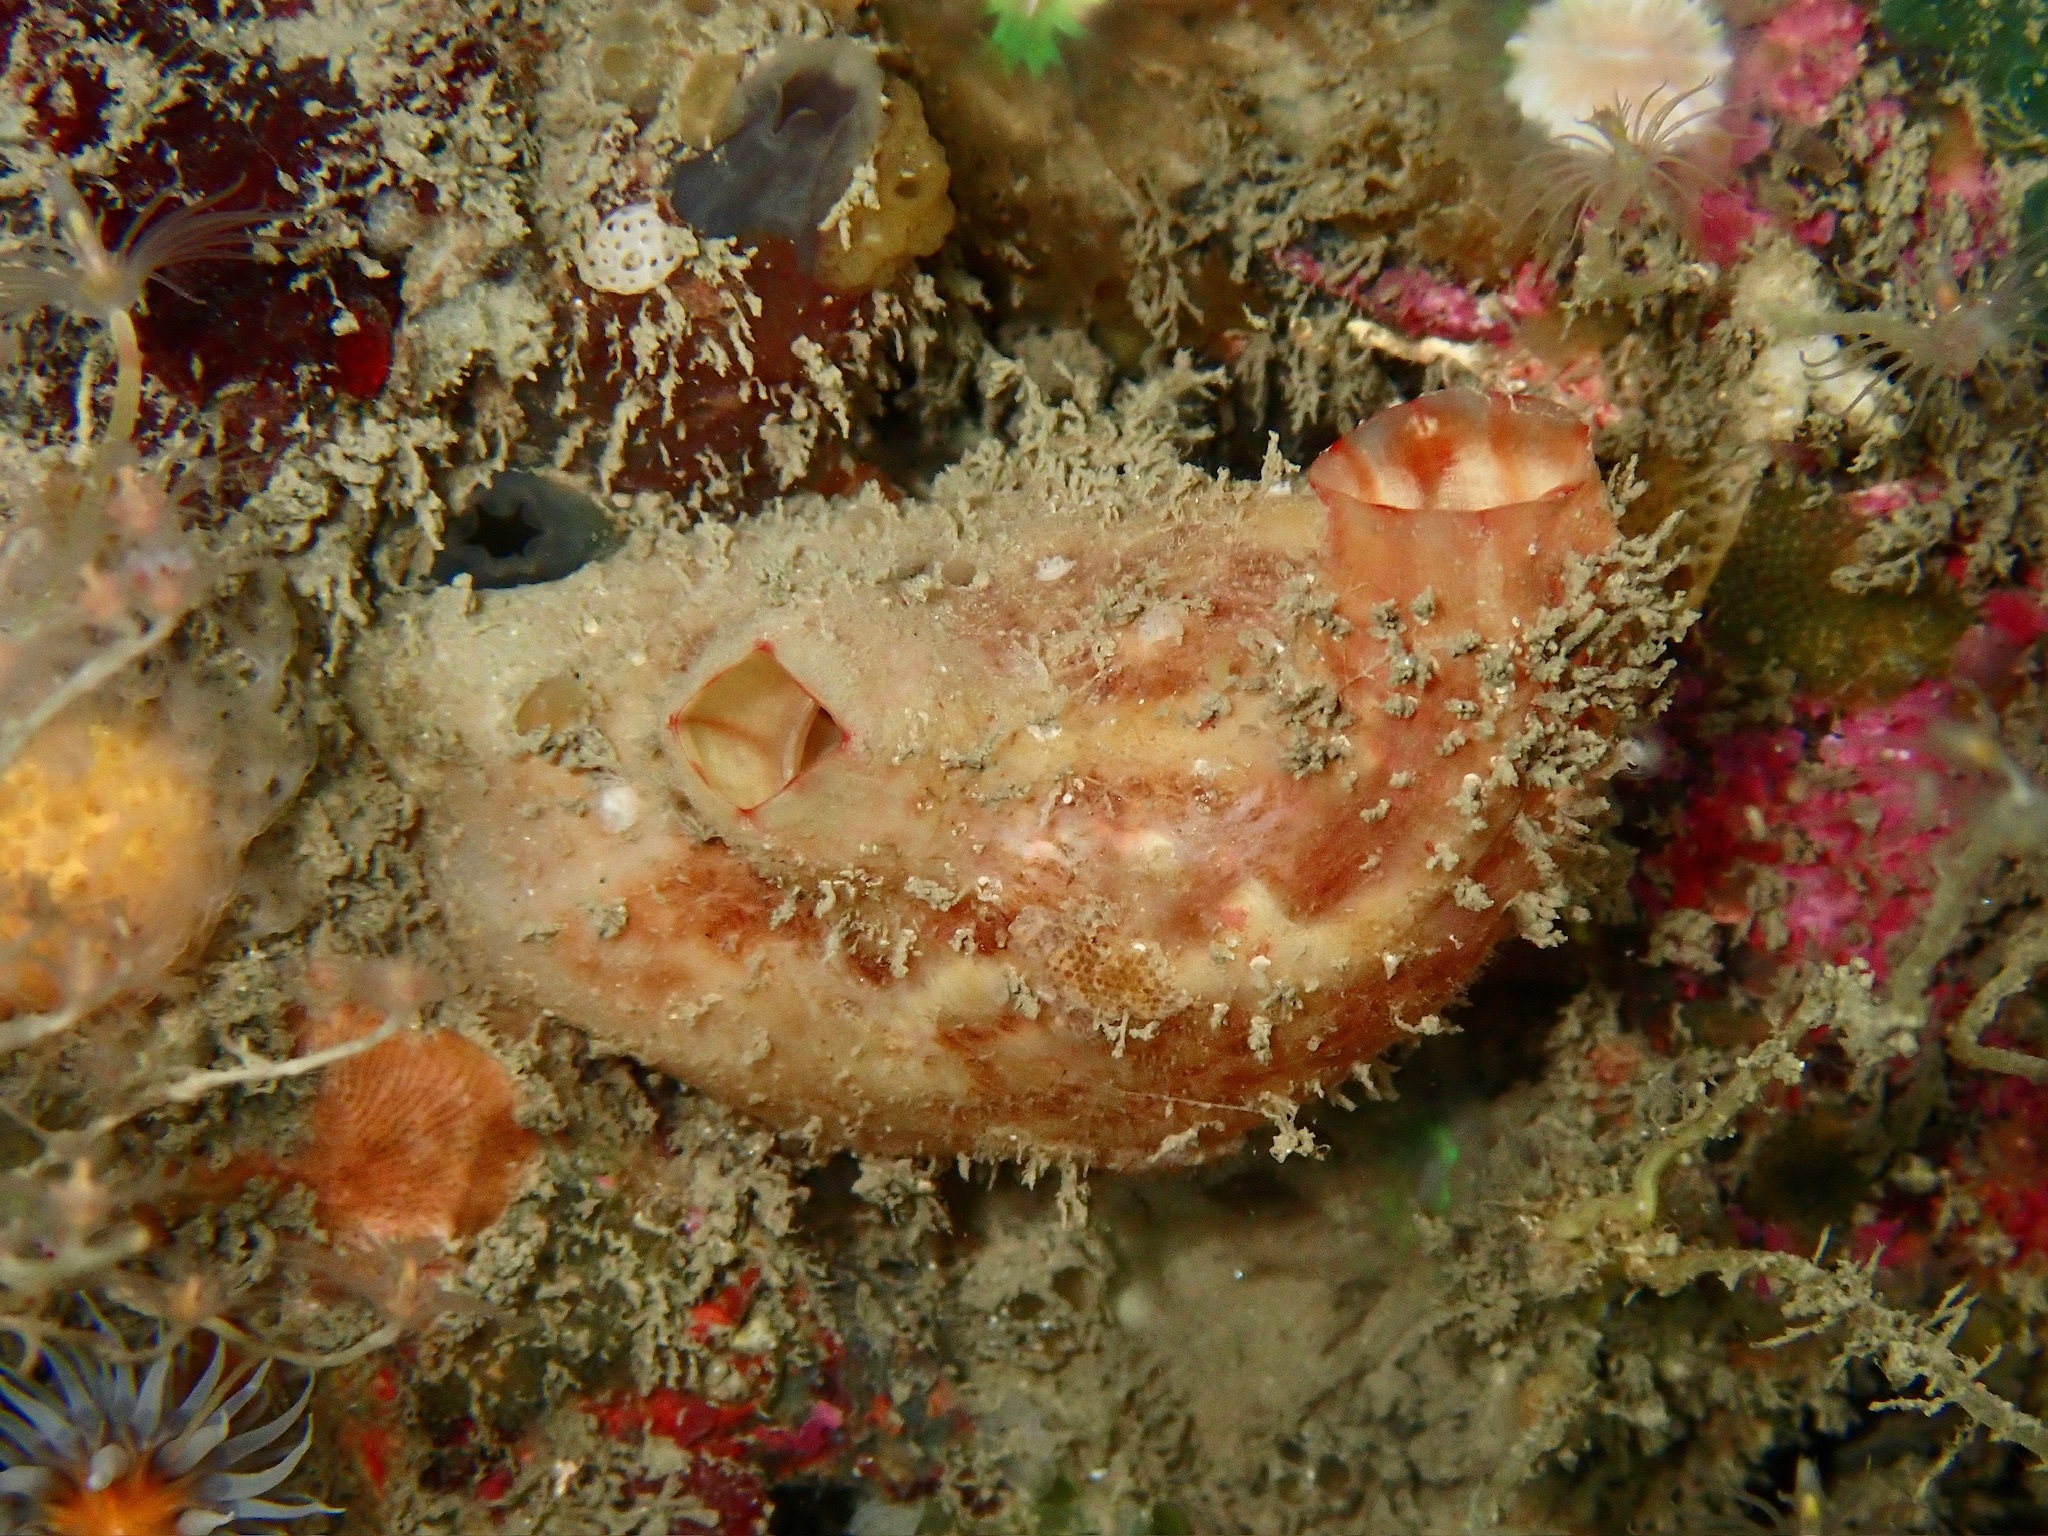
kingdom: Animalia
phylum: Chordata
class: Ascidiacea
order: Stolidobranchia
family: Styelidae
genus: Polycarpa
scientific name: Polycarpa pomaria
